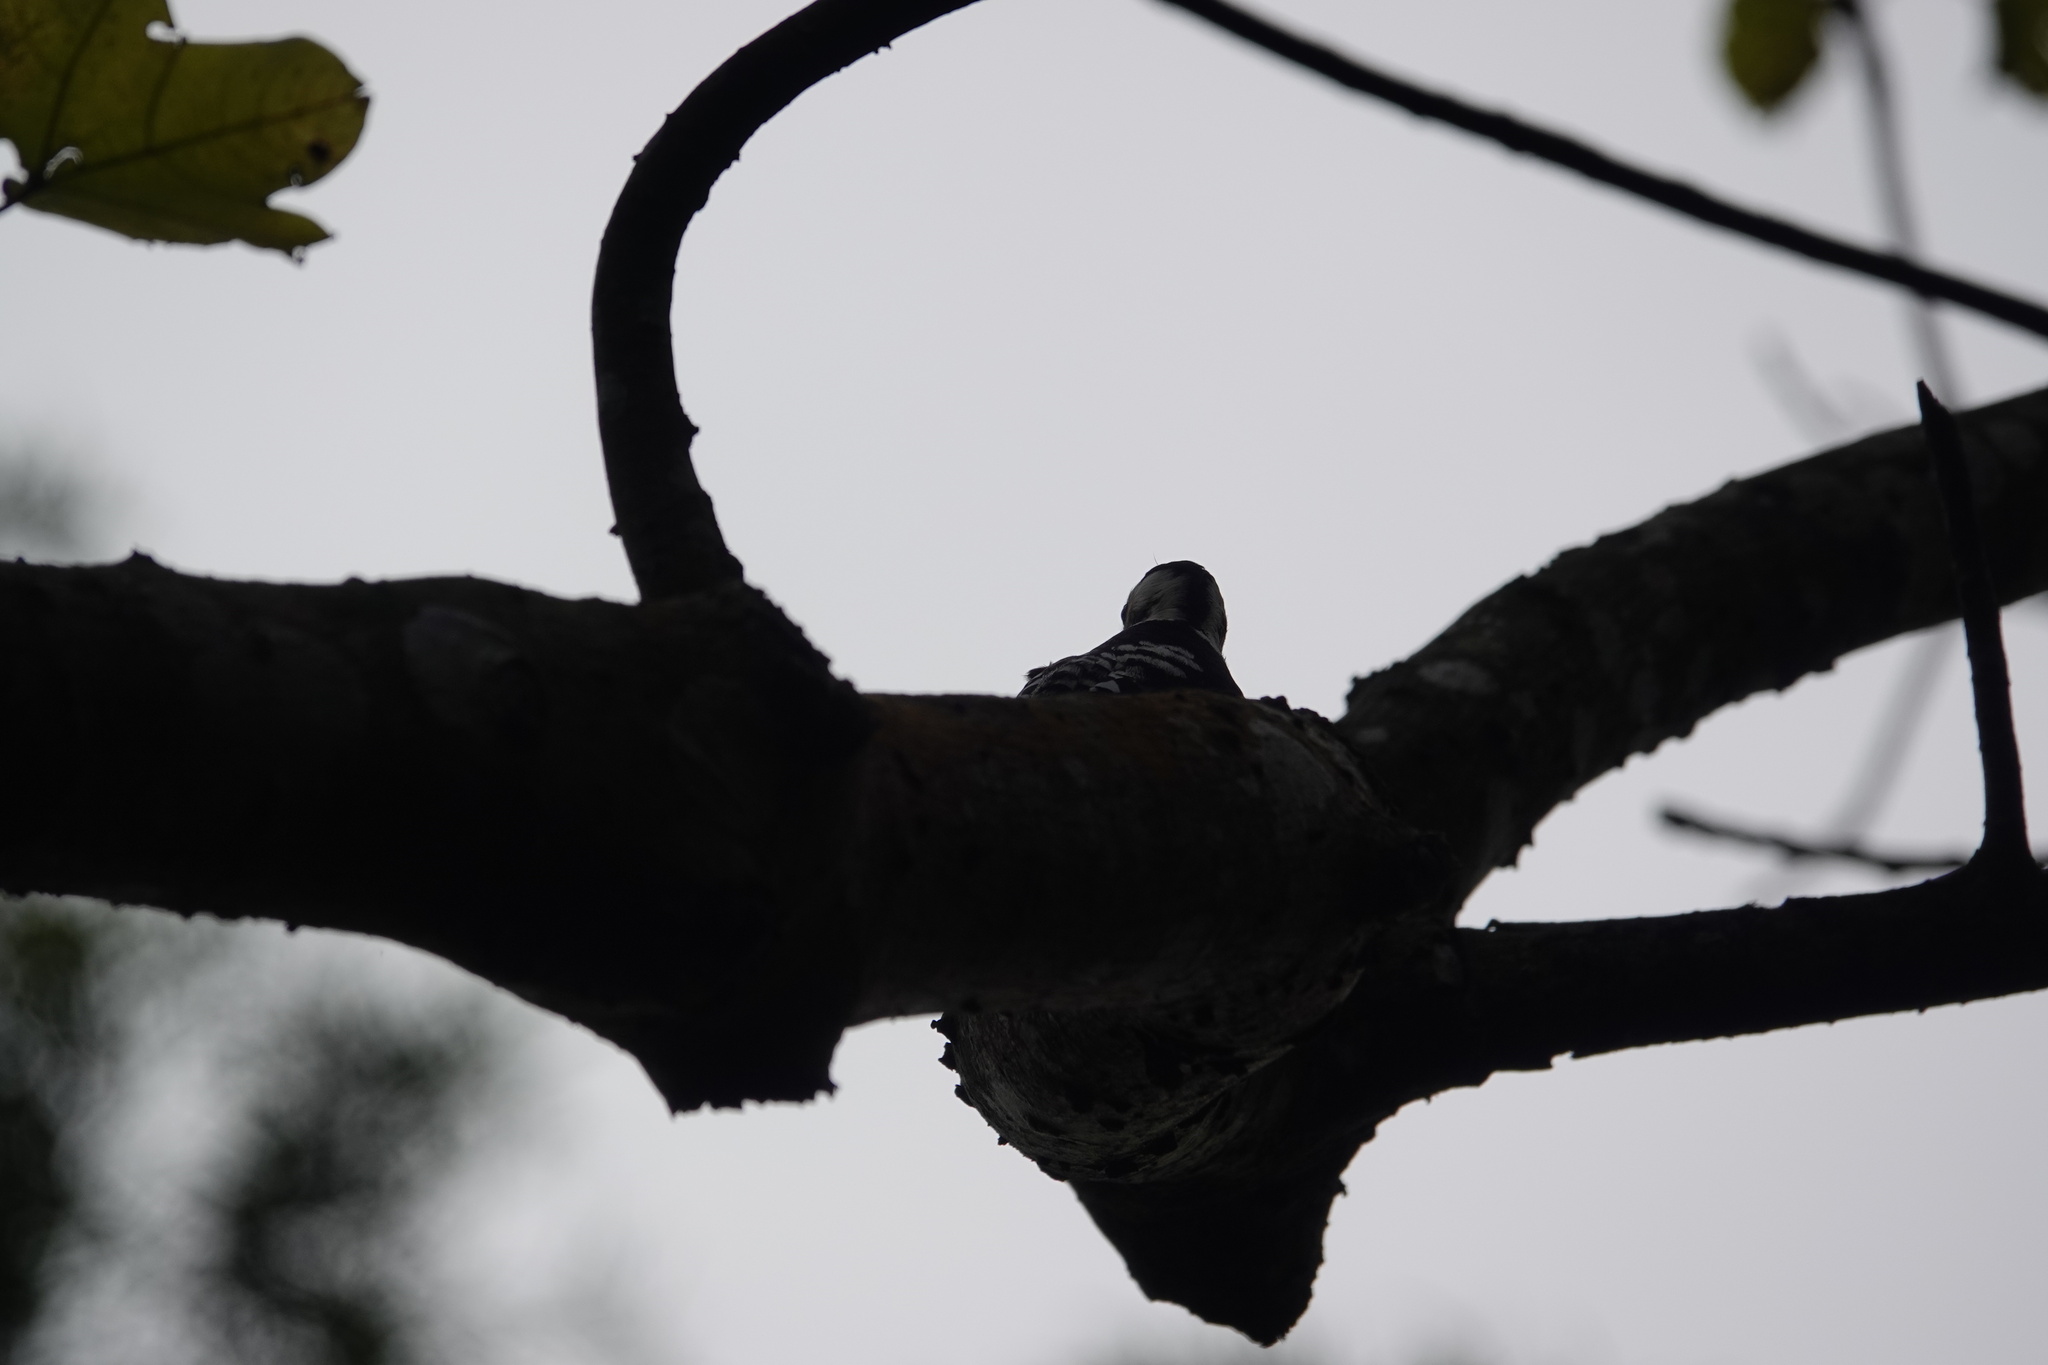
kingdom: Animalia
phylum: Chordata
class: Aves
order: Piciformes
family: Picidae
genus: Yungipicus
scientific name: Yungipicus canicapillus
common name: Grey-capped pygmy woodpecker
